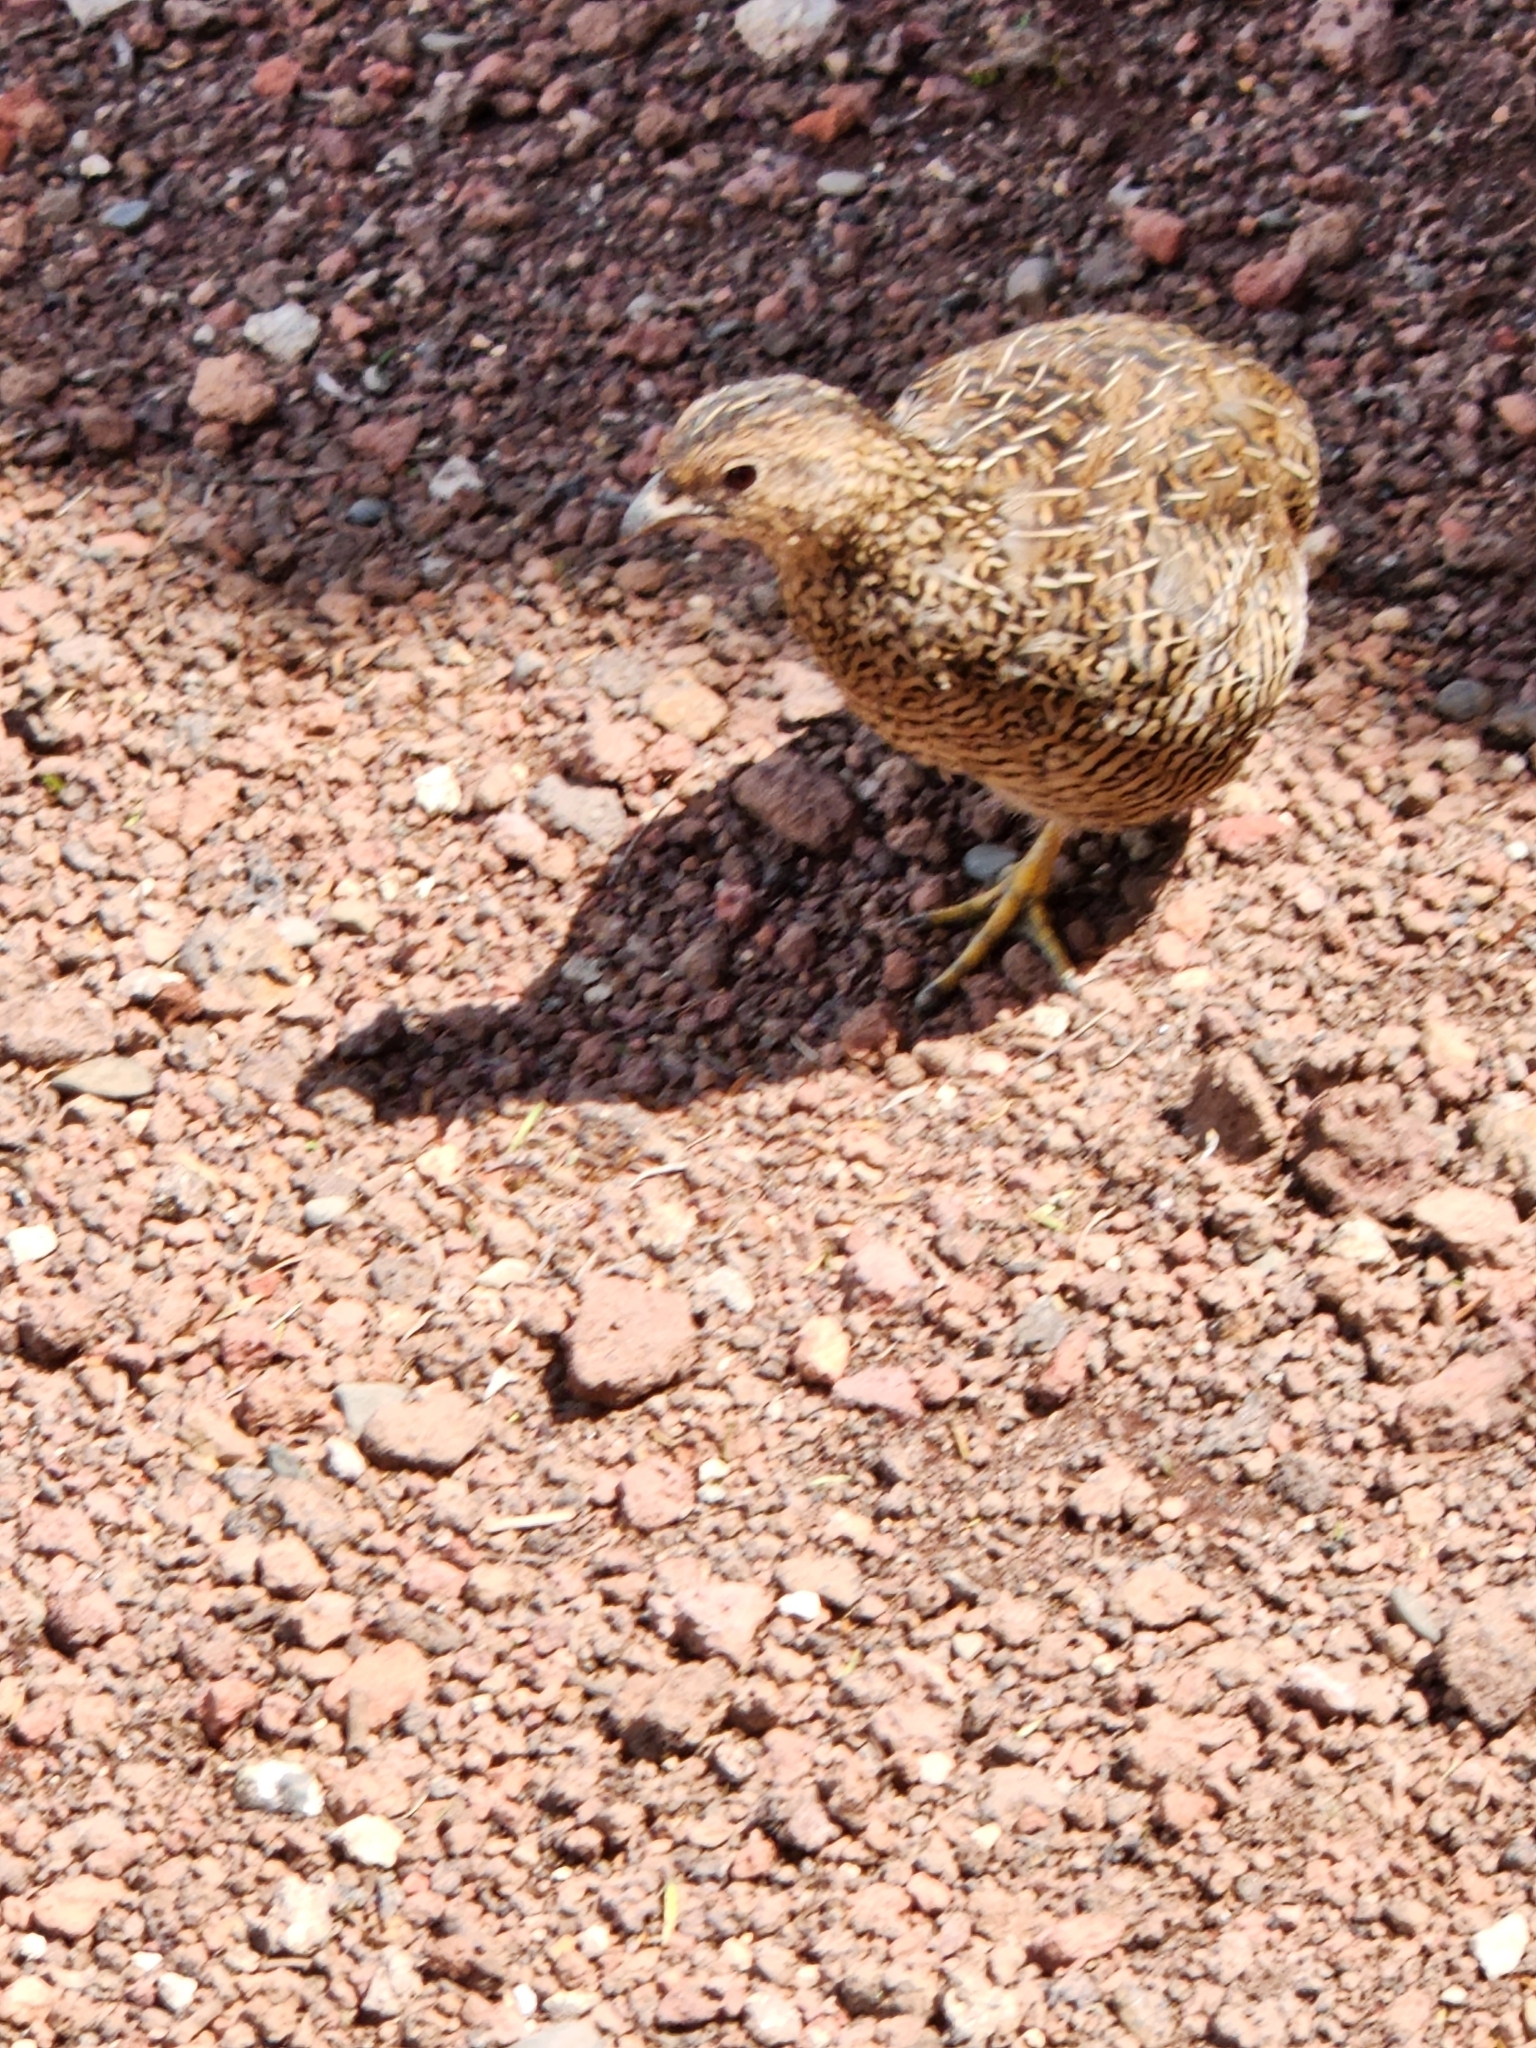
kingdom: Animalia
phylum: Chordata
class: Aves
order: Galliformes
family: Phasianidae
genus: Synoicus
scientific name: Synoicus ypsilophorus
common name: Brown quail
